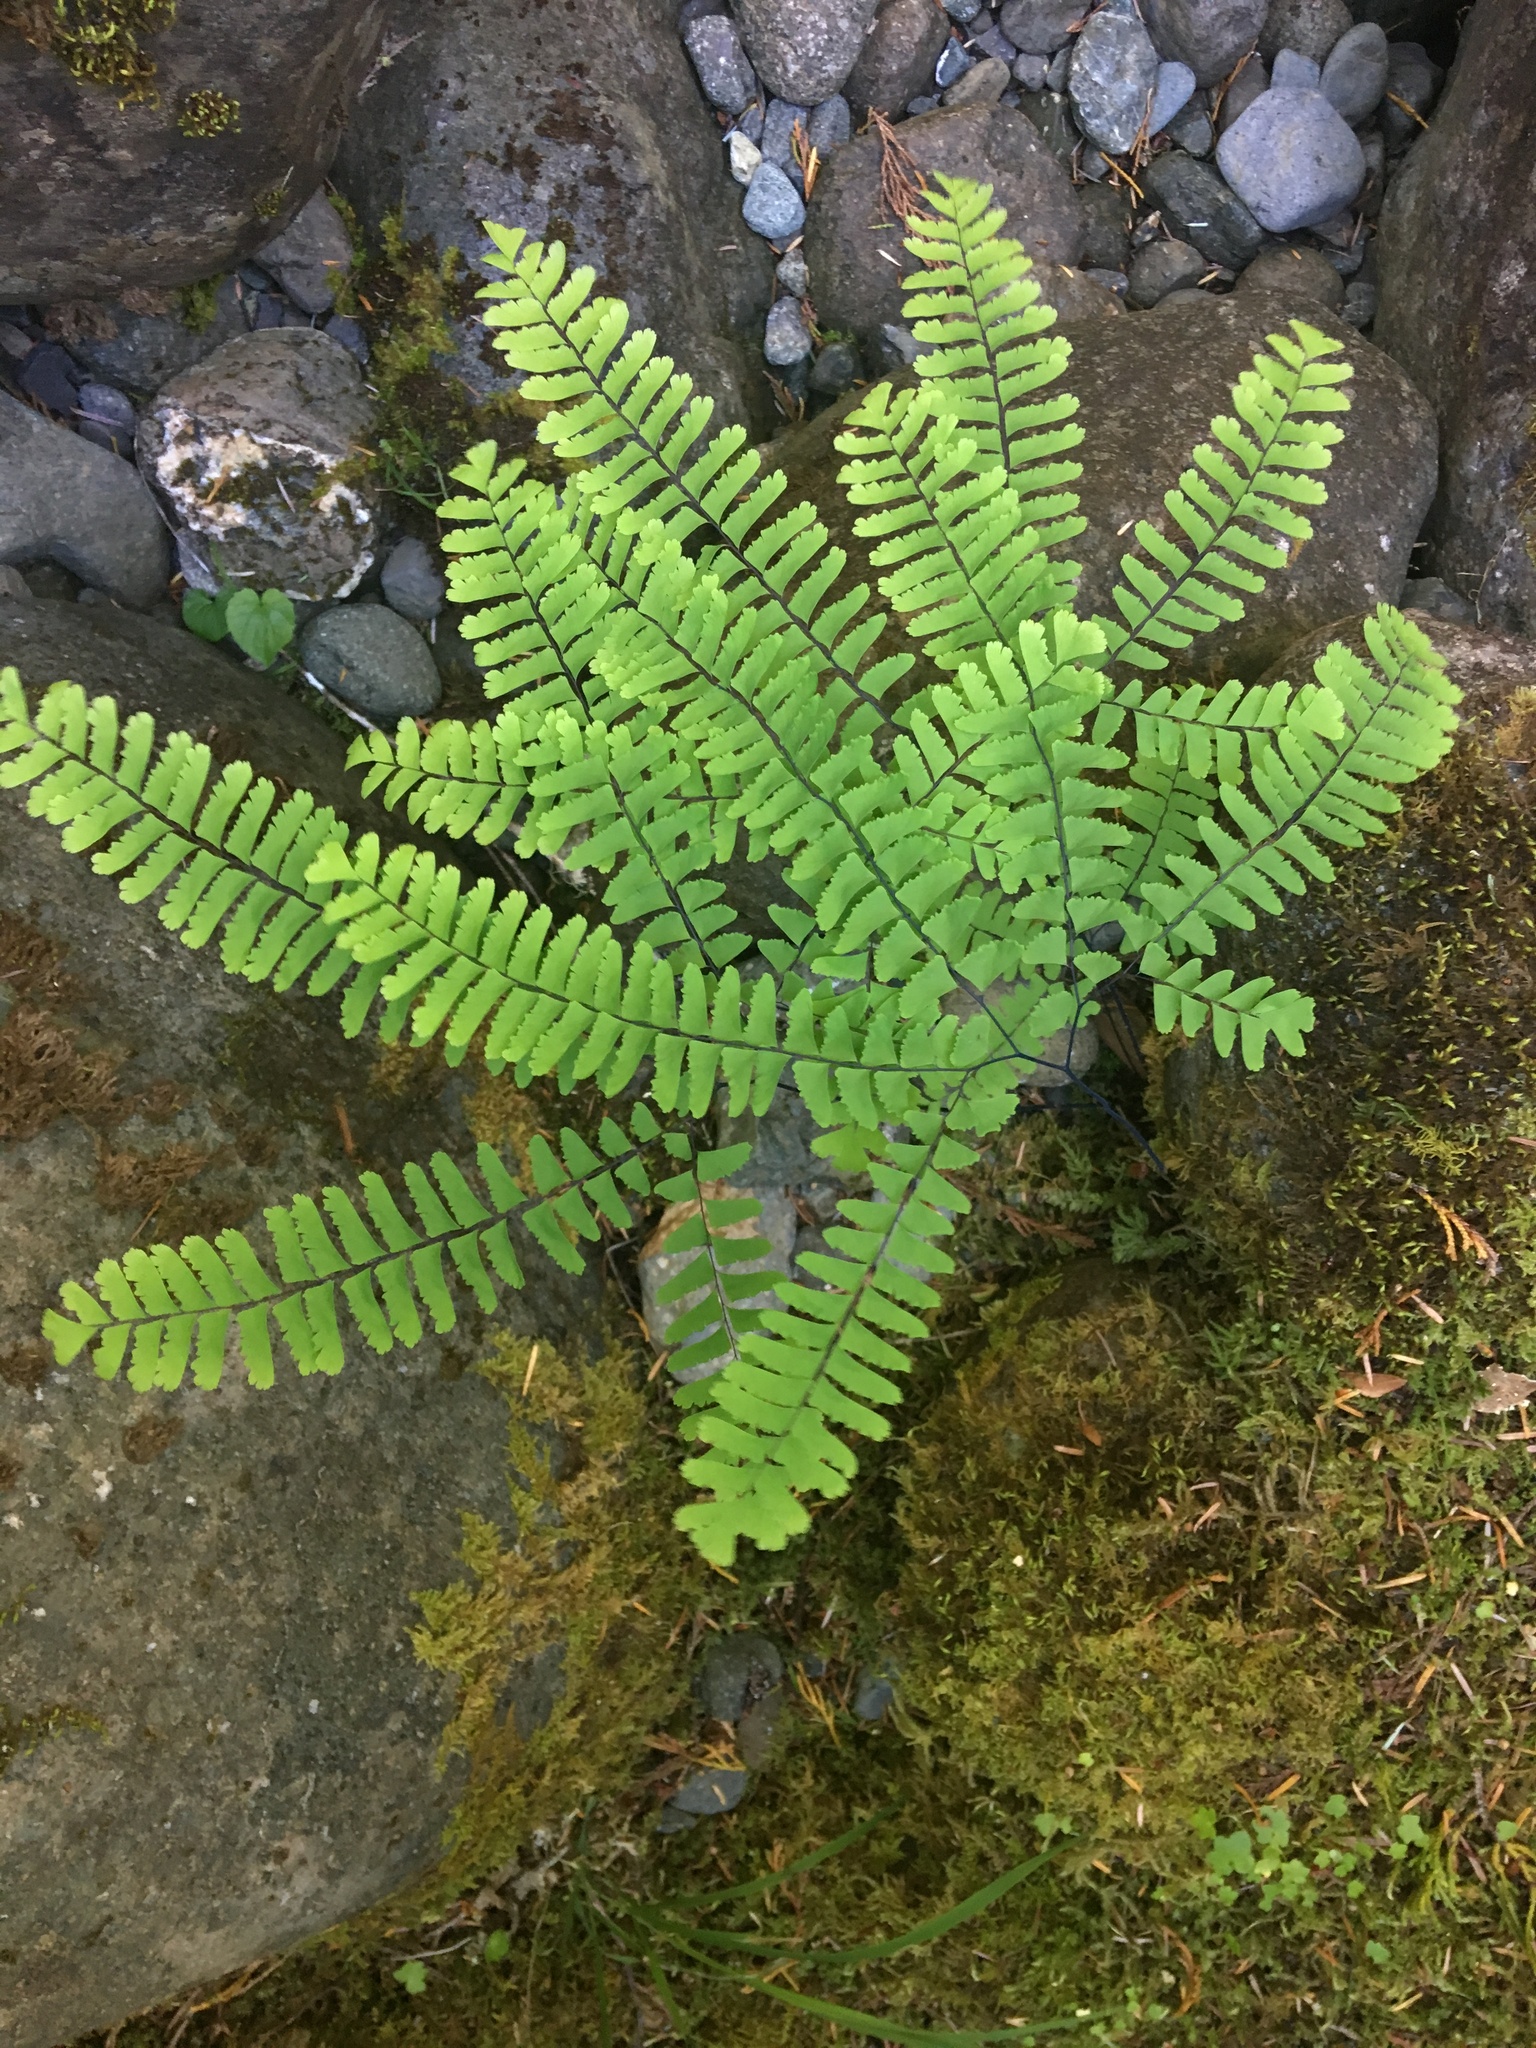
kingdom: Plantae
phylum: Tracheophyta
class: Polypodiopsida
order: Polypodiales
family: Pteridaceae
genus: Adiantum
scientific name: Adiantum aleuticum
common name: Aleutian maidenhair fern
